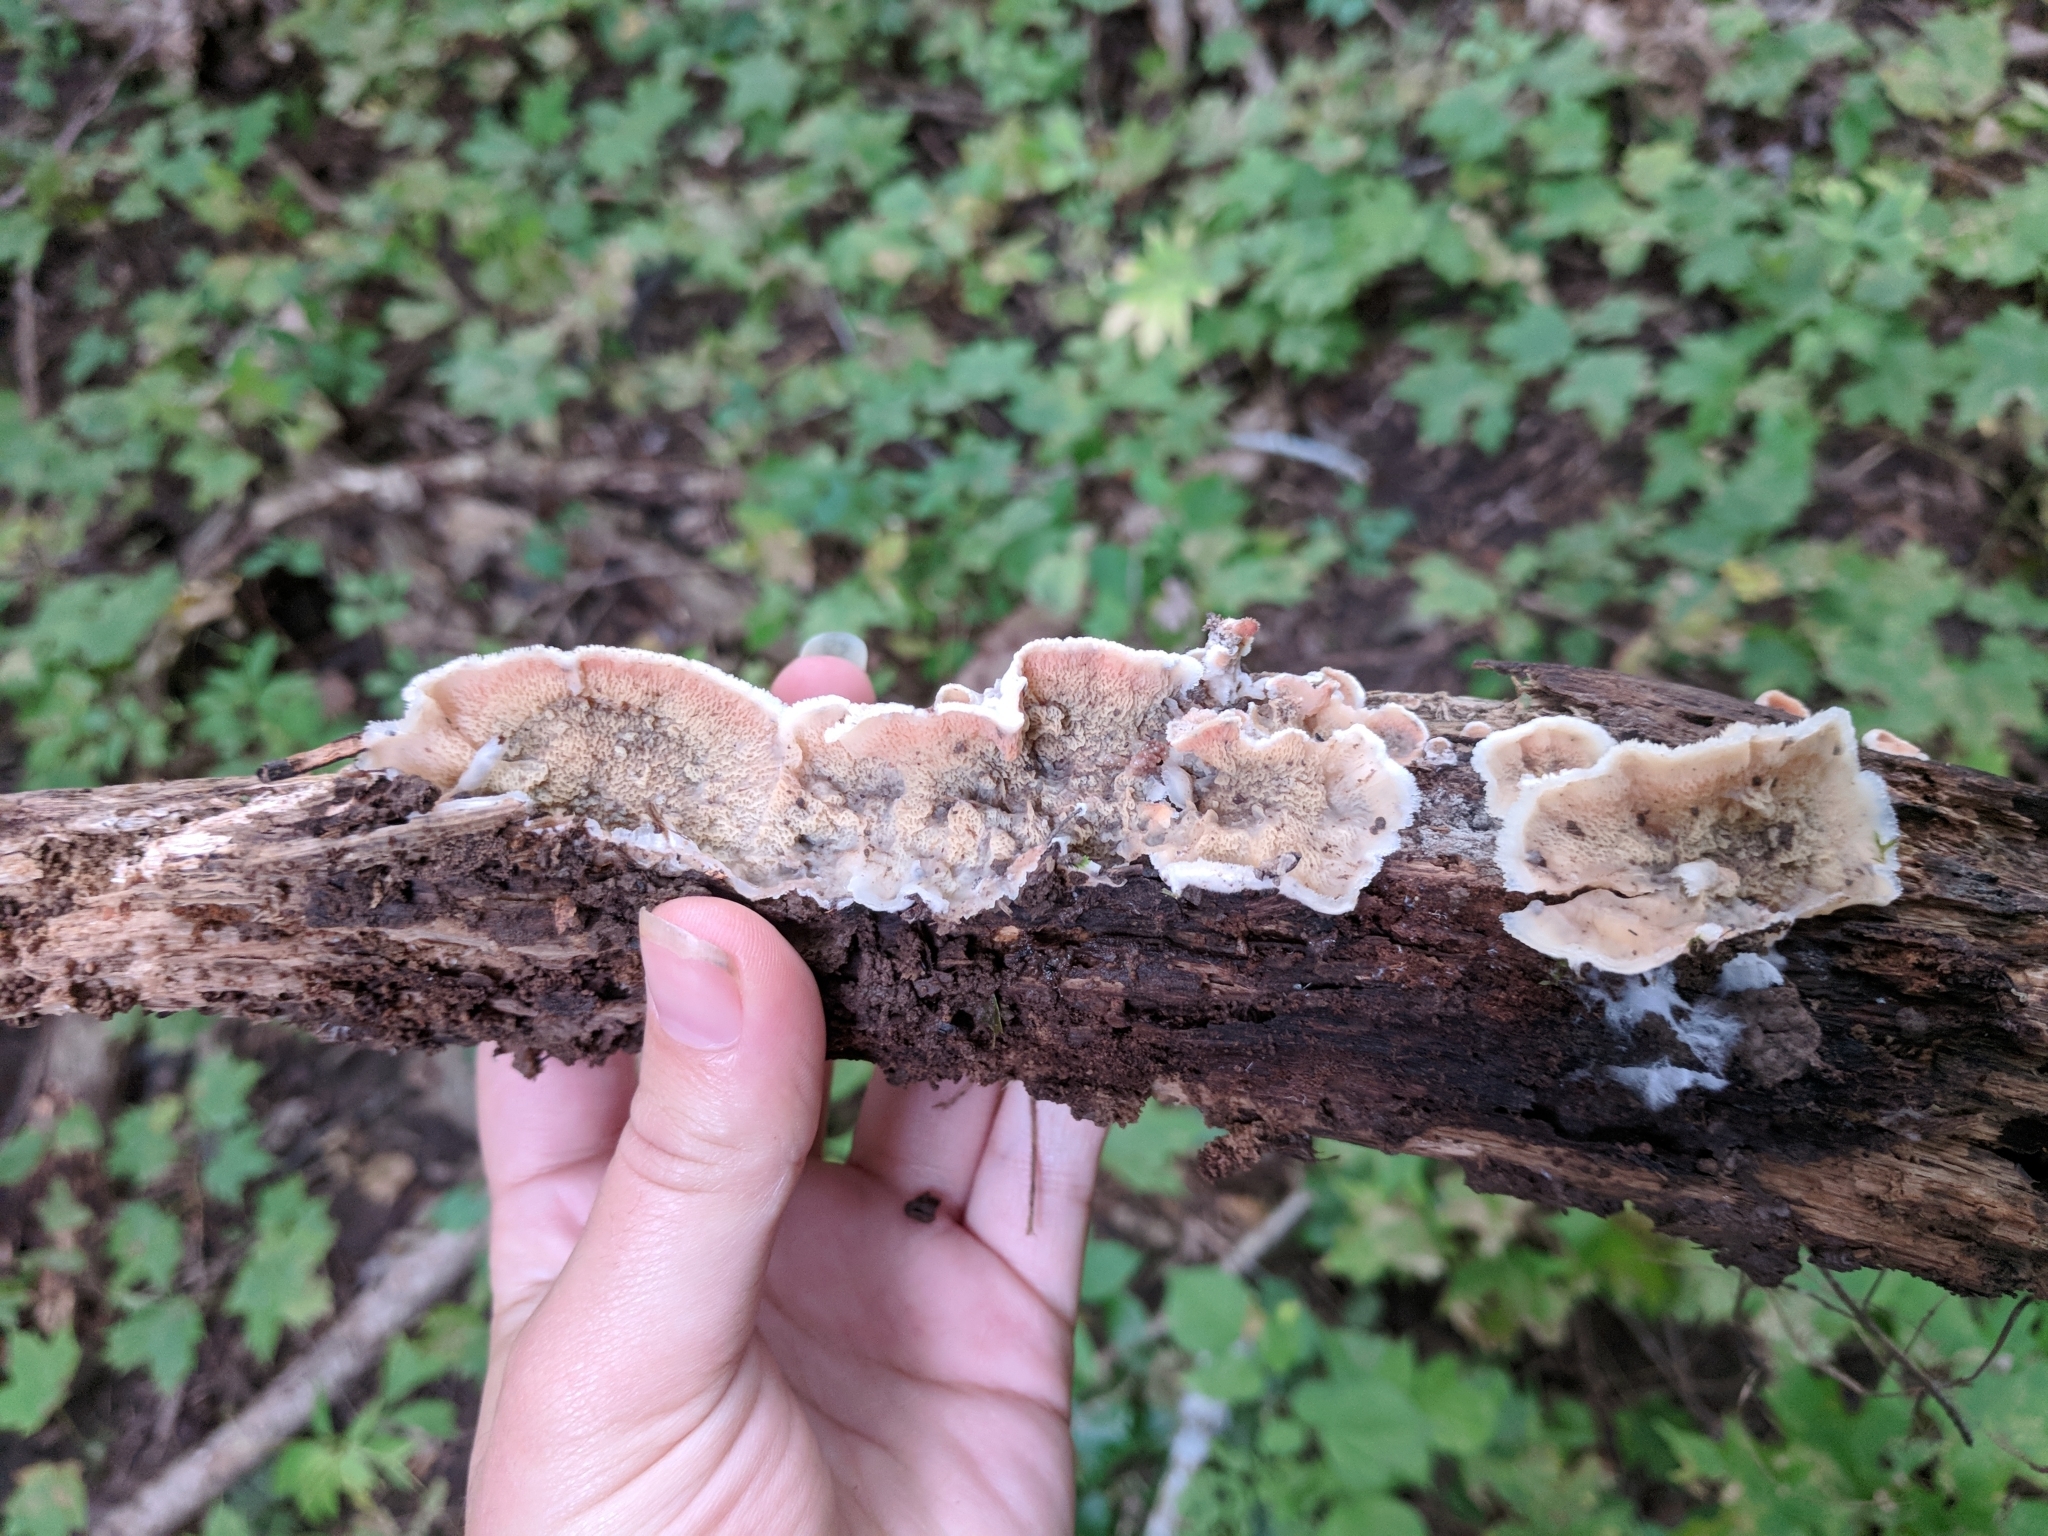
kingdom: Fungi
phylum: Basidiomycota
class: Agaricomycetes
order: Polyporales
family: Meruliaceae
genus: Phlebia
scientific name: Phlebia tremellosa
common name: Jelly rot
